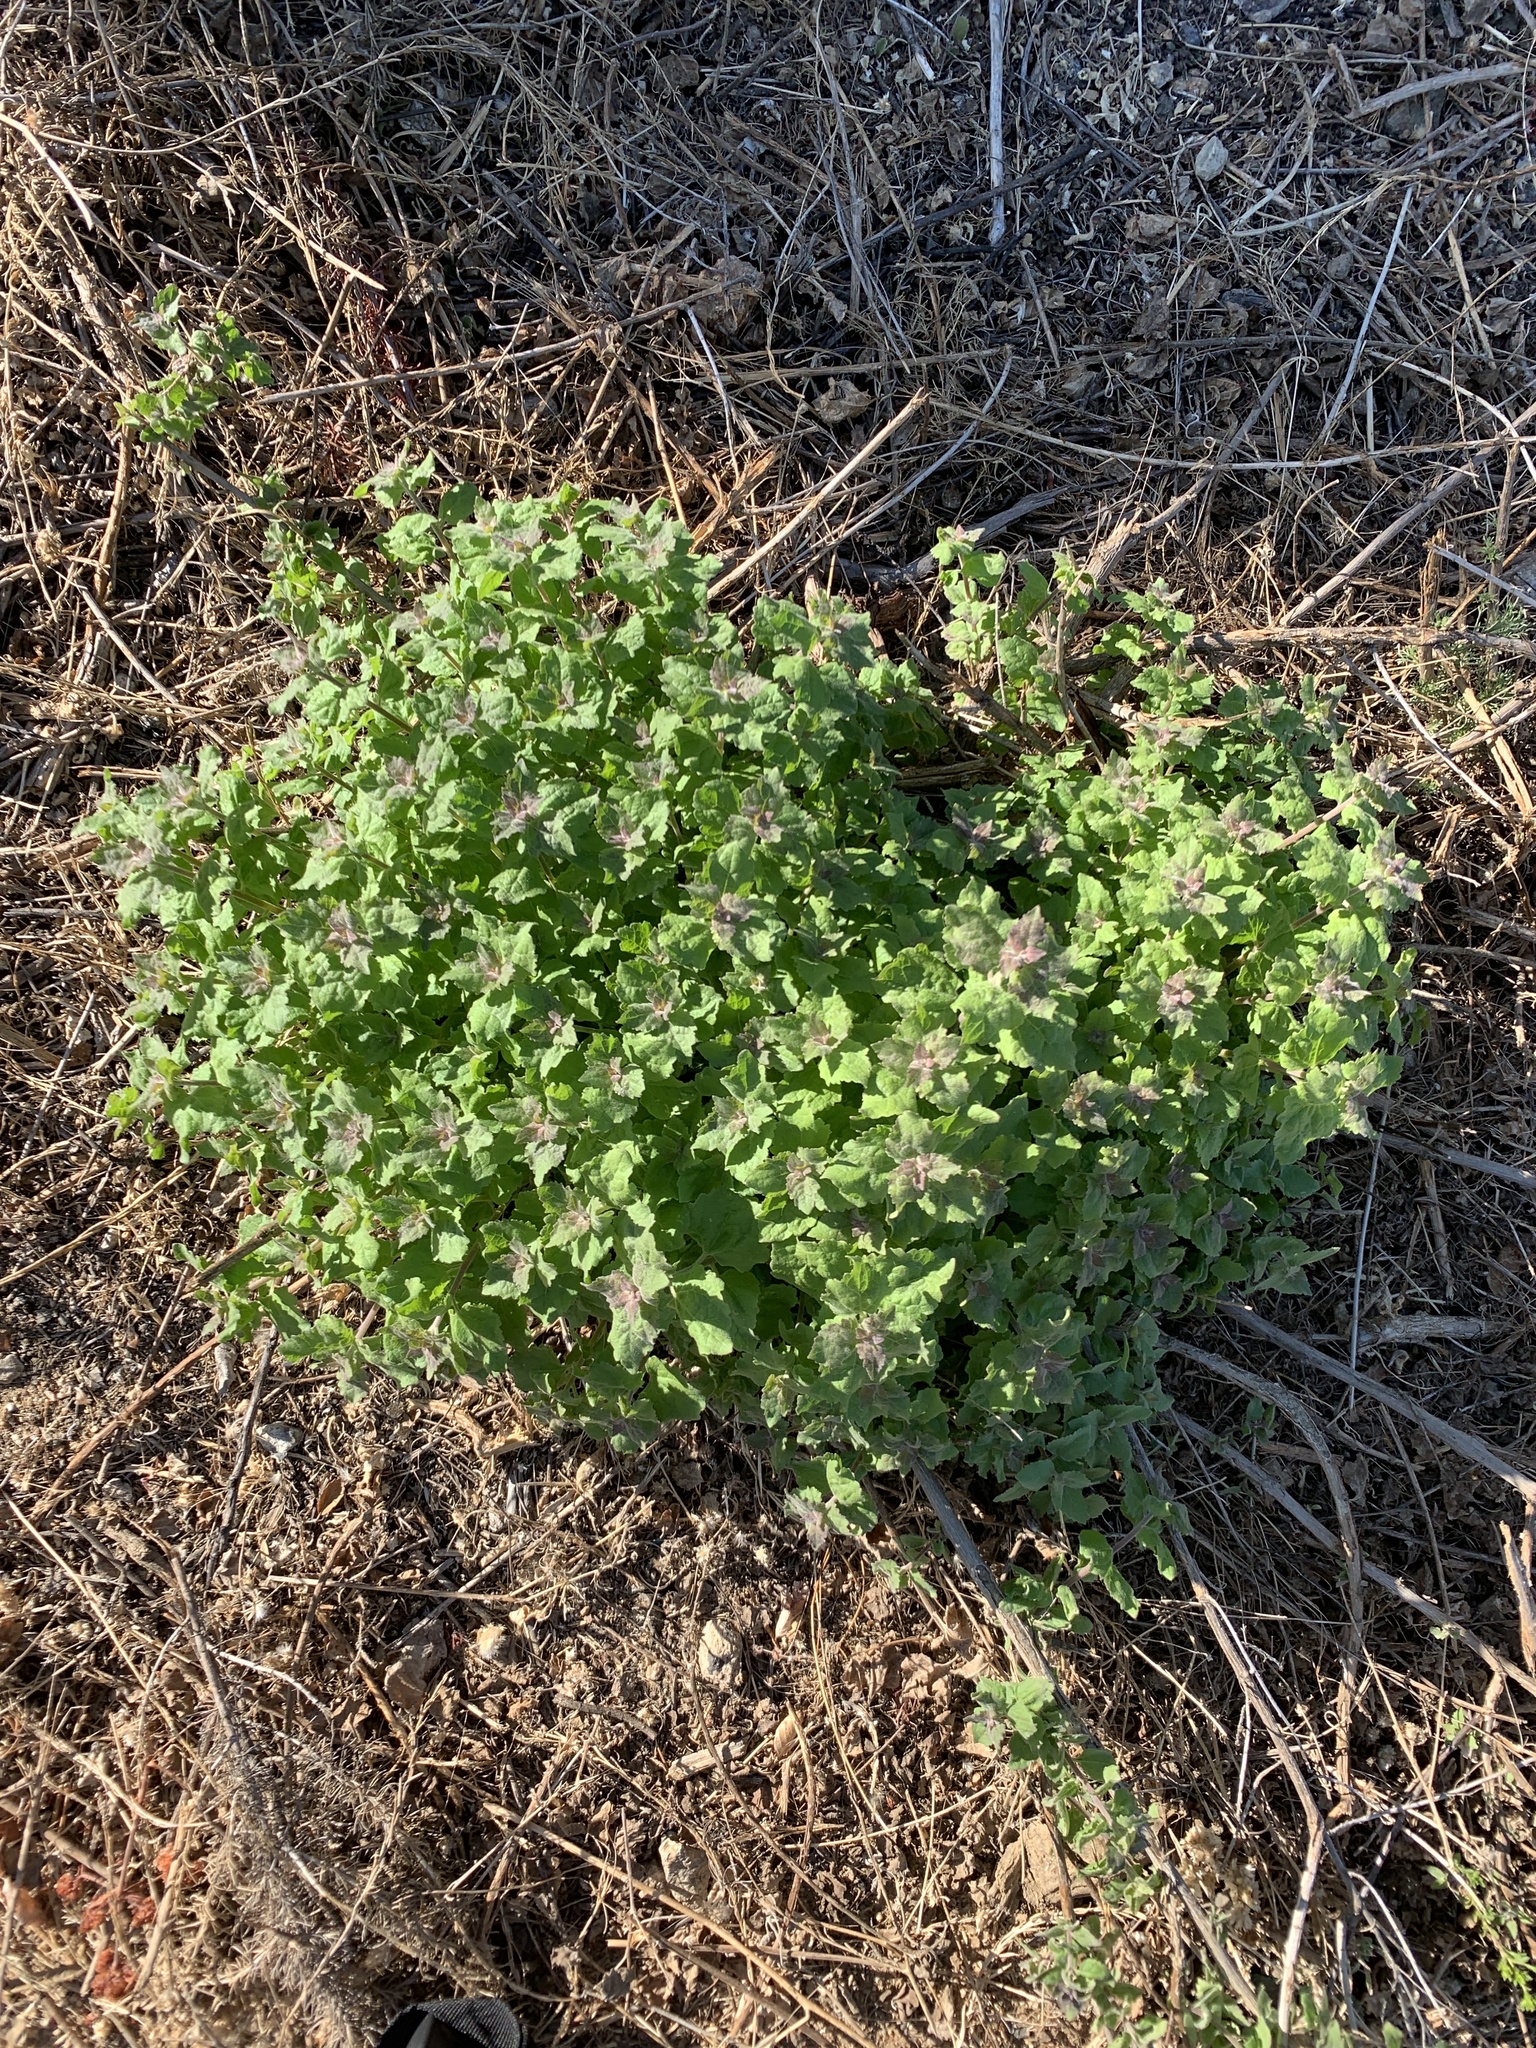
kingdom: Plantae
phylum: Tracheophyta
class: Magnoliopsida
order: Asterales
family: Asteraceae
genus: Brickellia
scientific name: Brickellia californica
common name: California brickellbush
